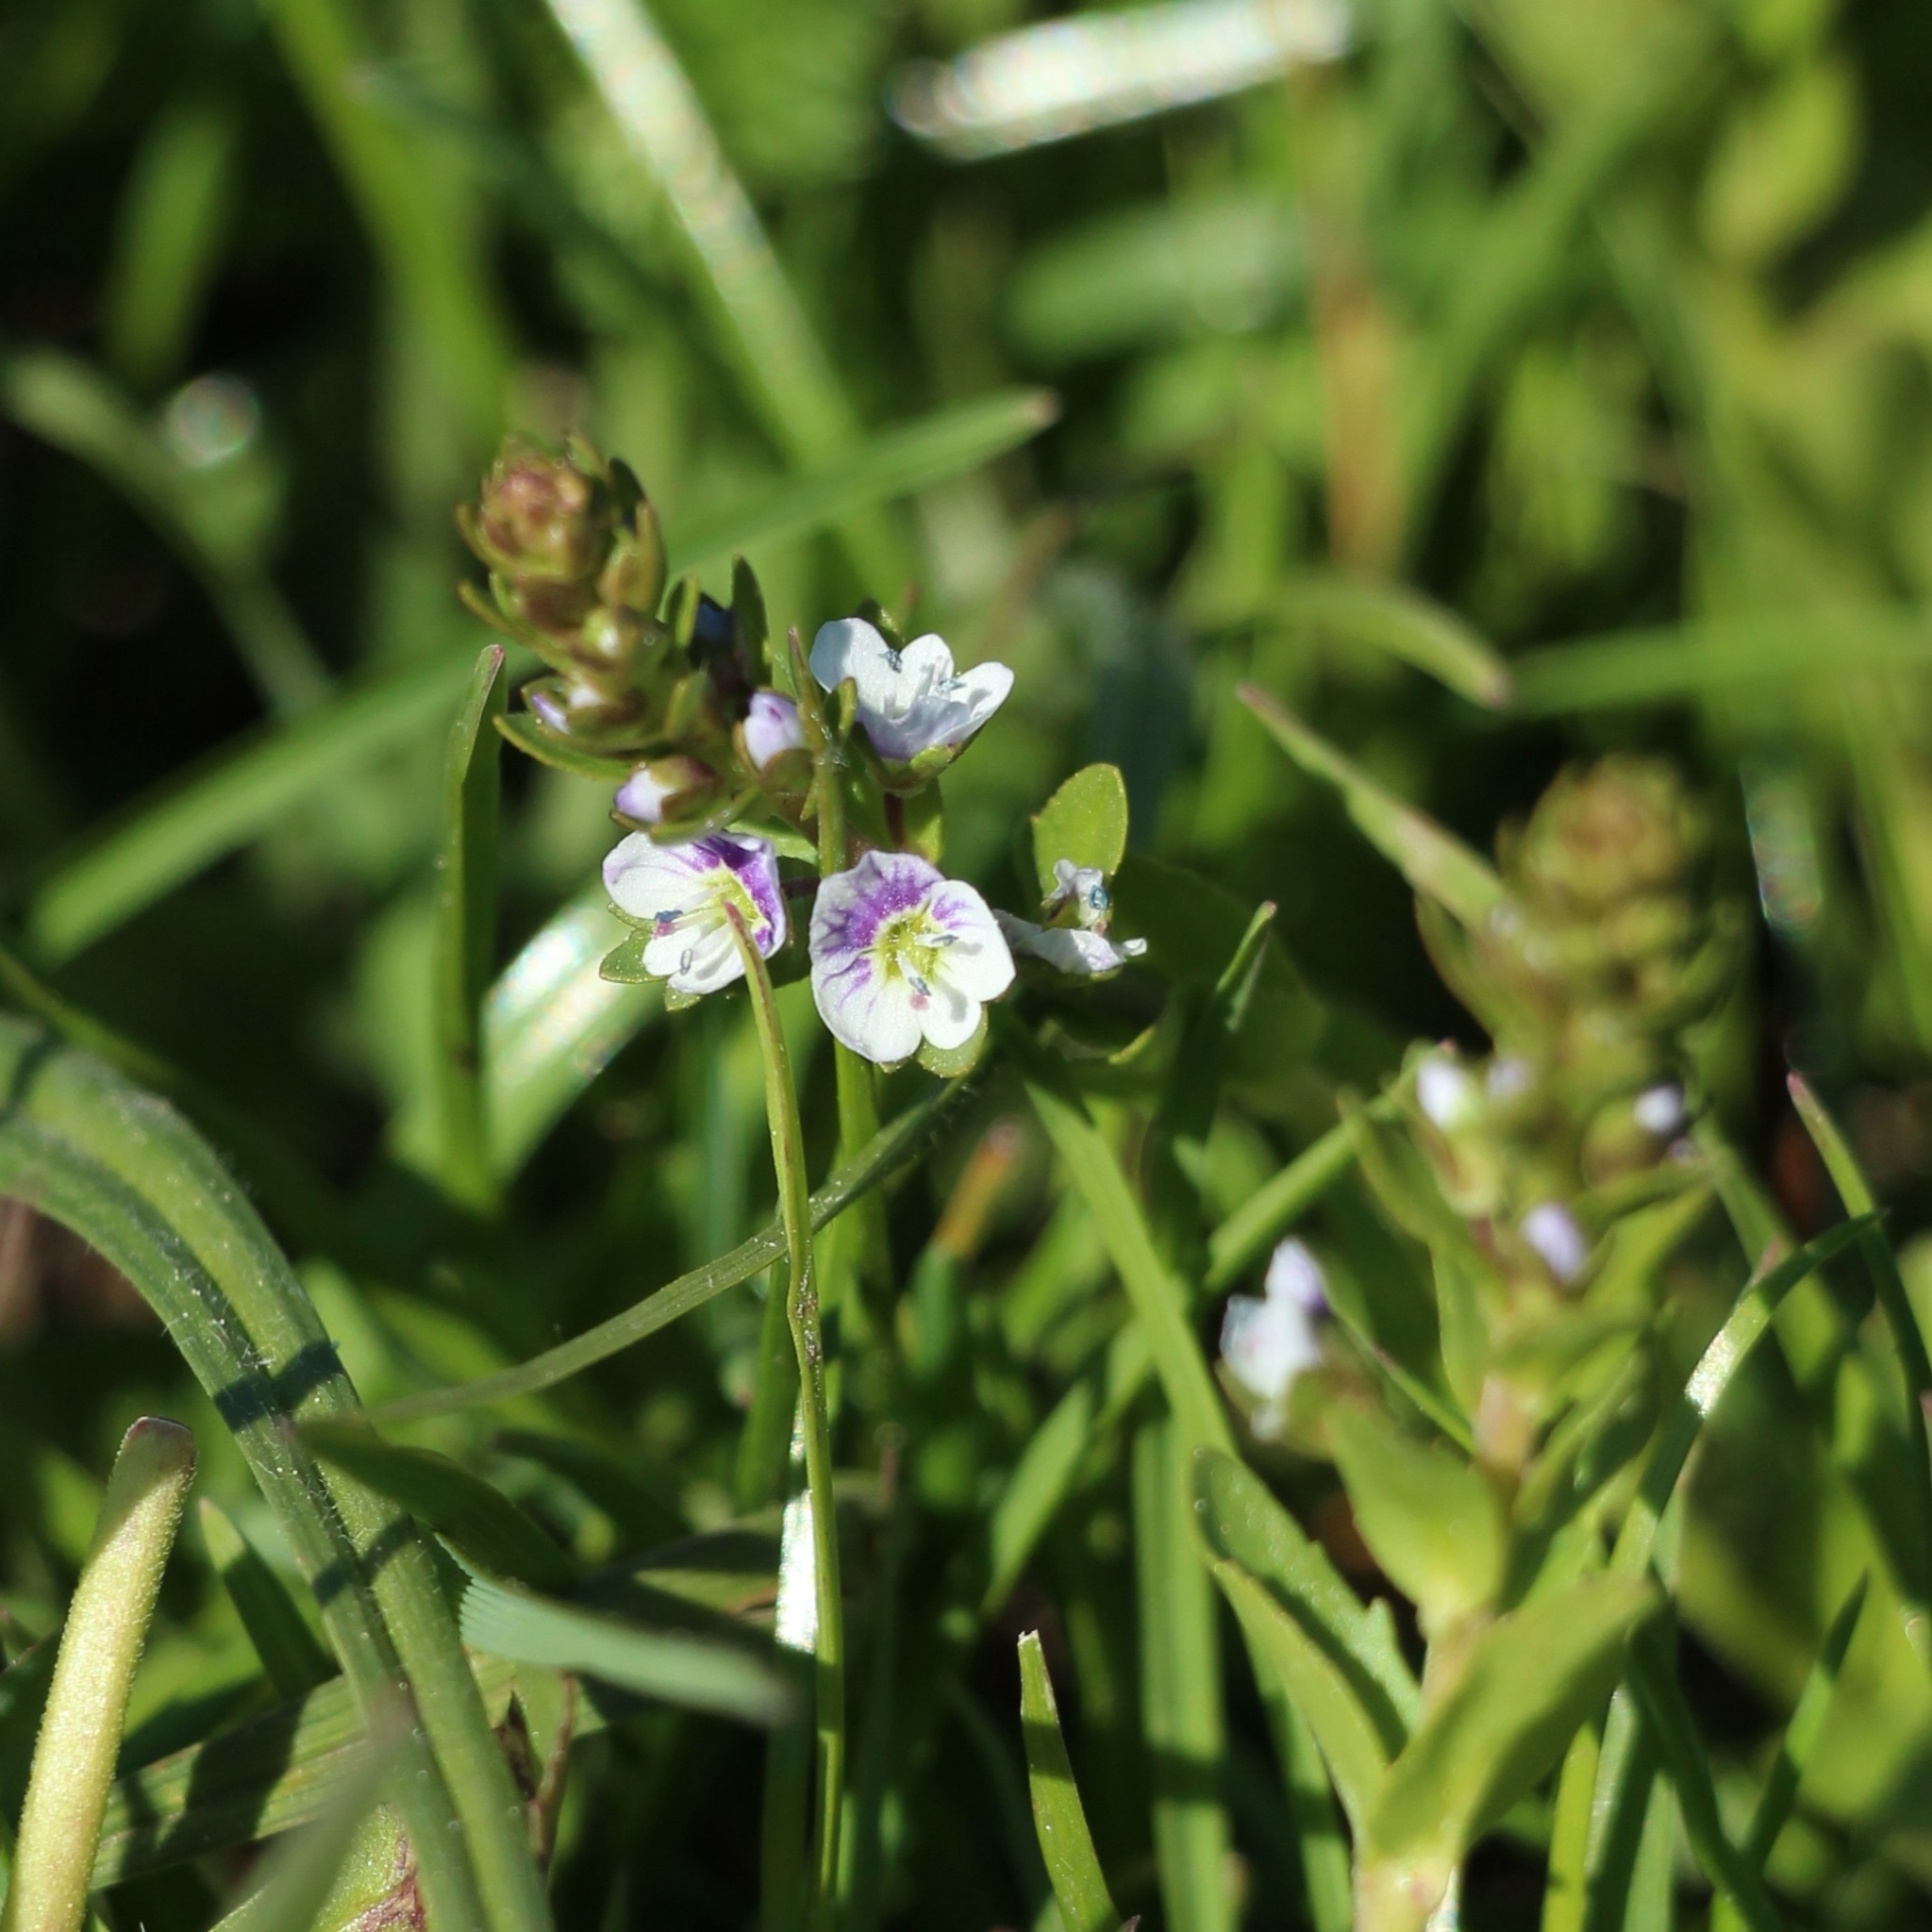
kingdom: Plantae
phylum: Tracheophyta
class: Magnoliopsida
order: Lamiales
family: Plantaginaceae
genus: Veronica
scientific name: Veronica serpyllifolia
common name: Thyme-leaved speedwell
